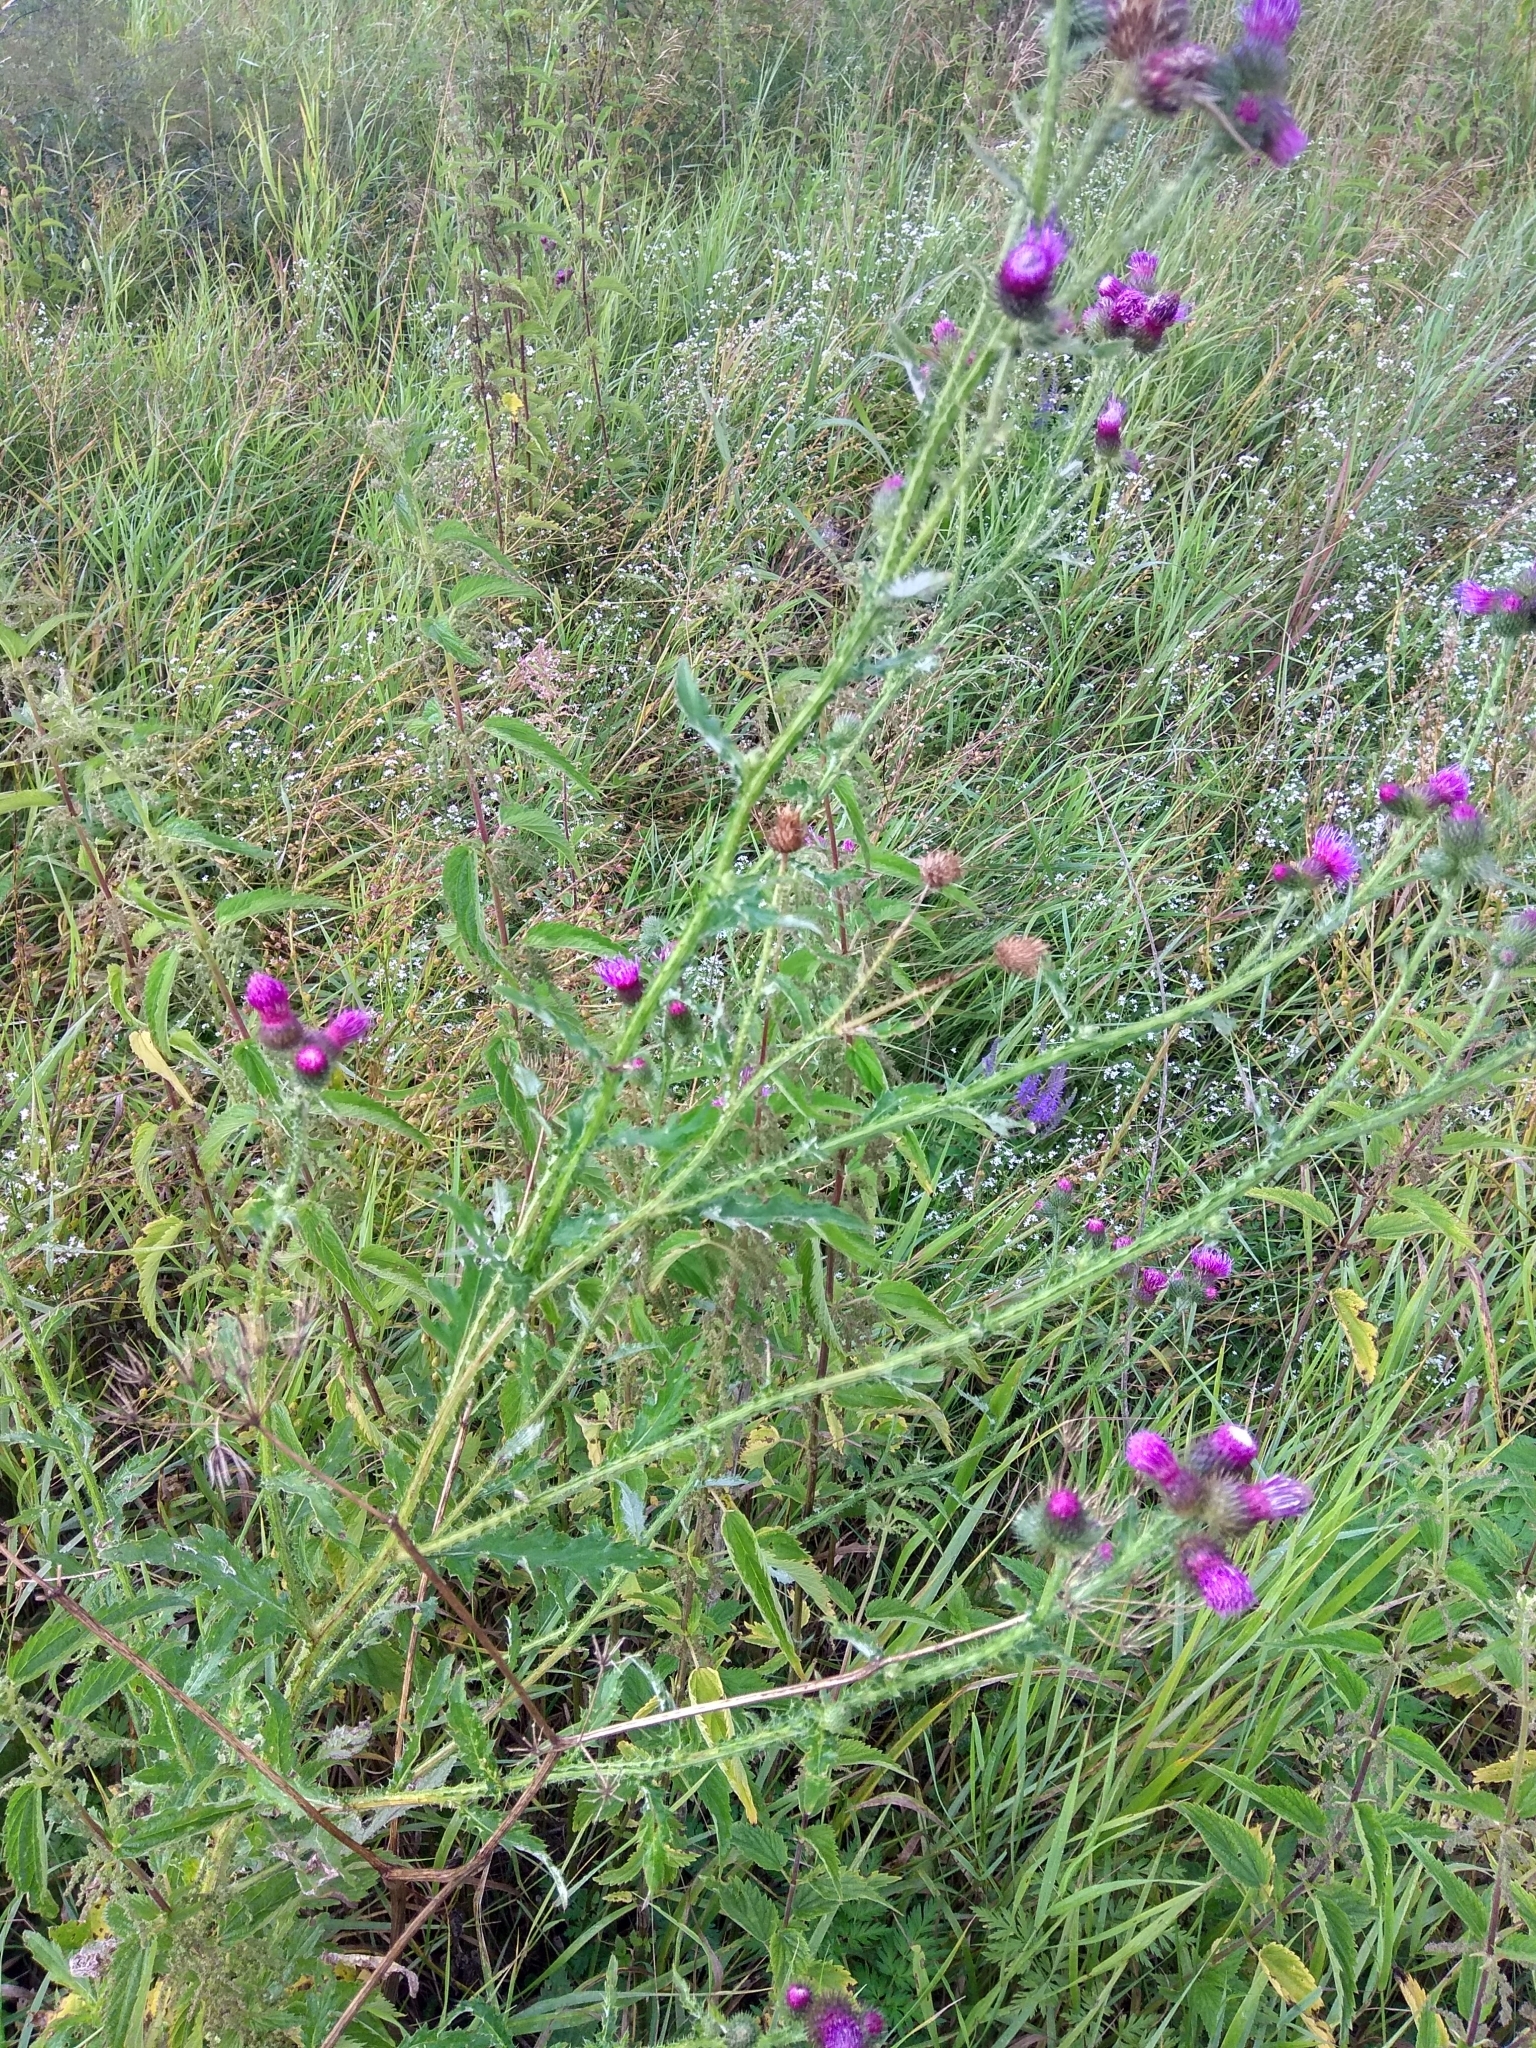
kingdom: Plantae
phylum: Tracheophyta
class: Magnoliopsida
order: Asterales
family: Asteraceae
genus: Carduus
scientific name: Carduus crispus
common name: Welted thistle
